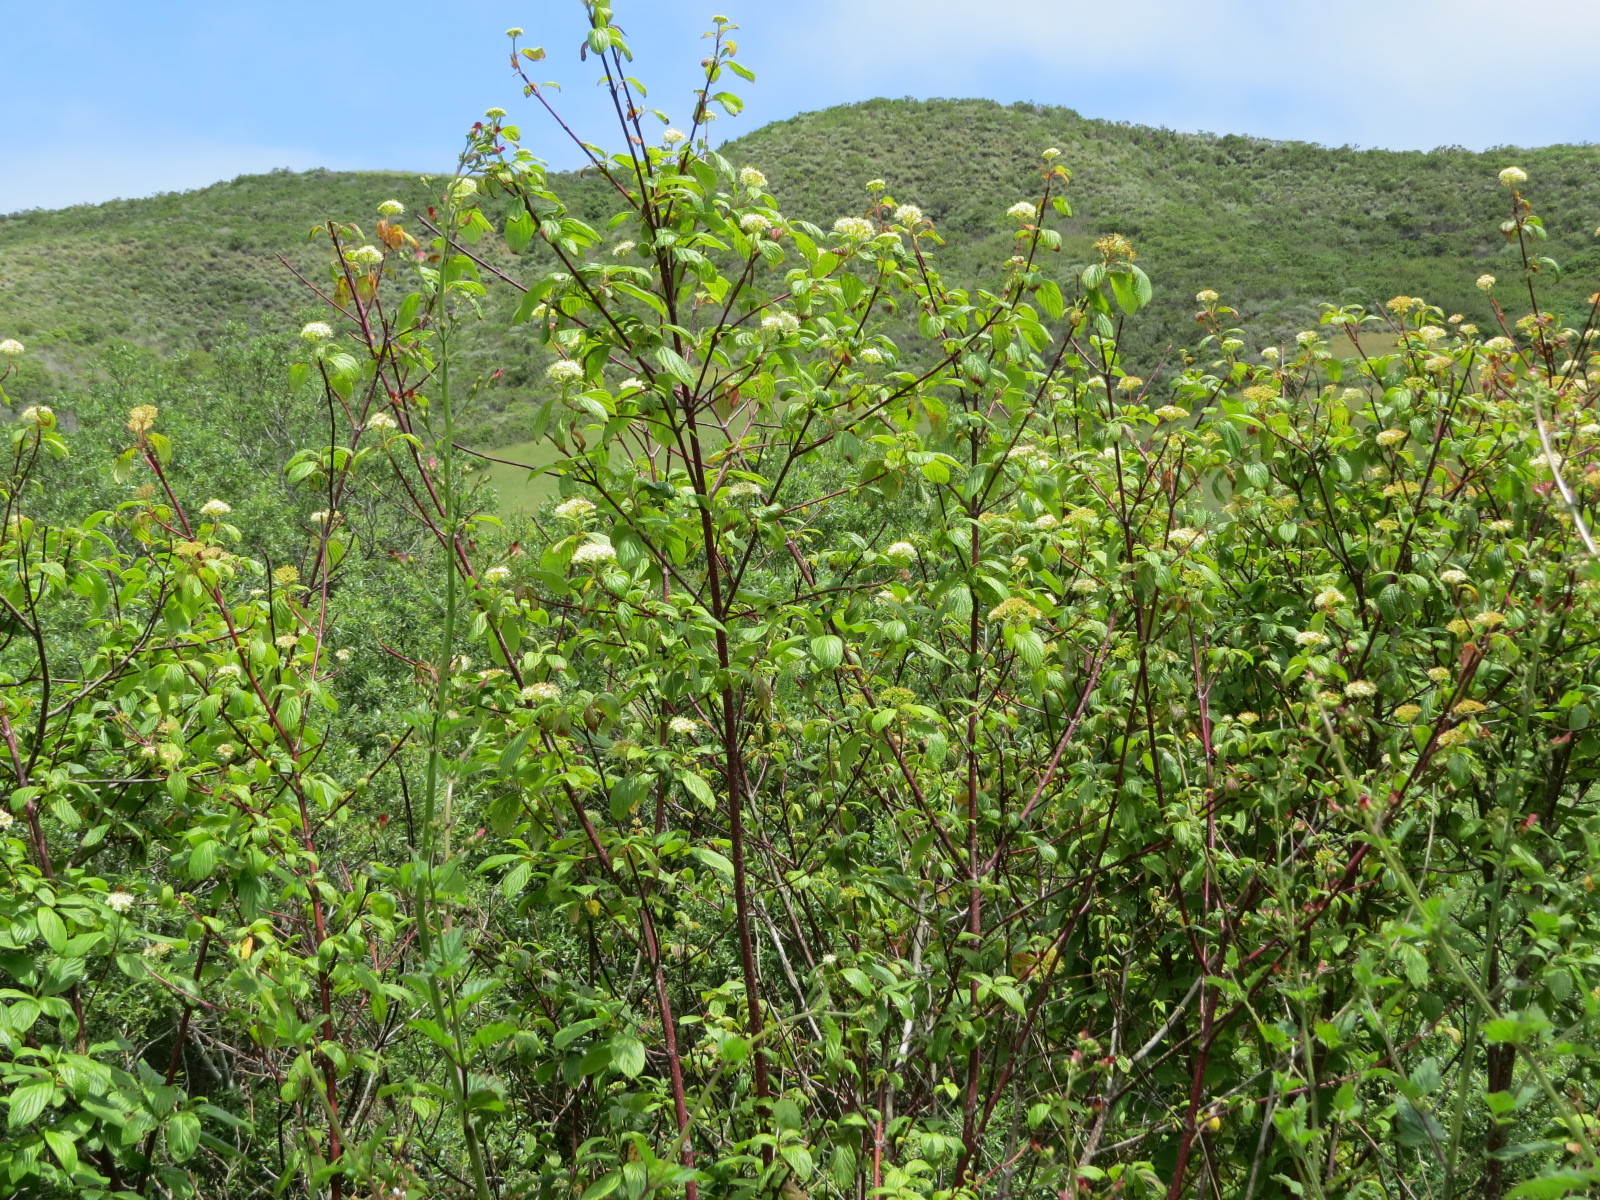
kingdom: Plantae
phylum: Tracheophyta
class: Magnoliopsida
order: Cornales
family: Cornaceae
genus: Cornus
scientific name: Cornus torreyi
